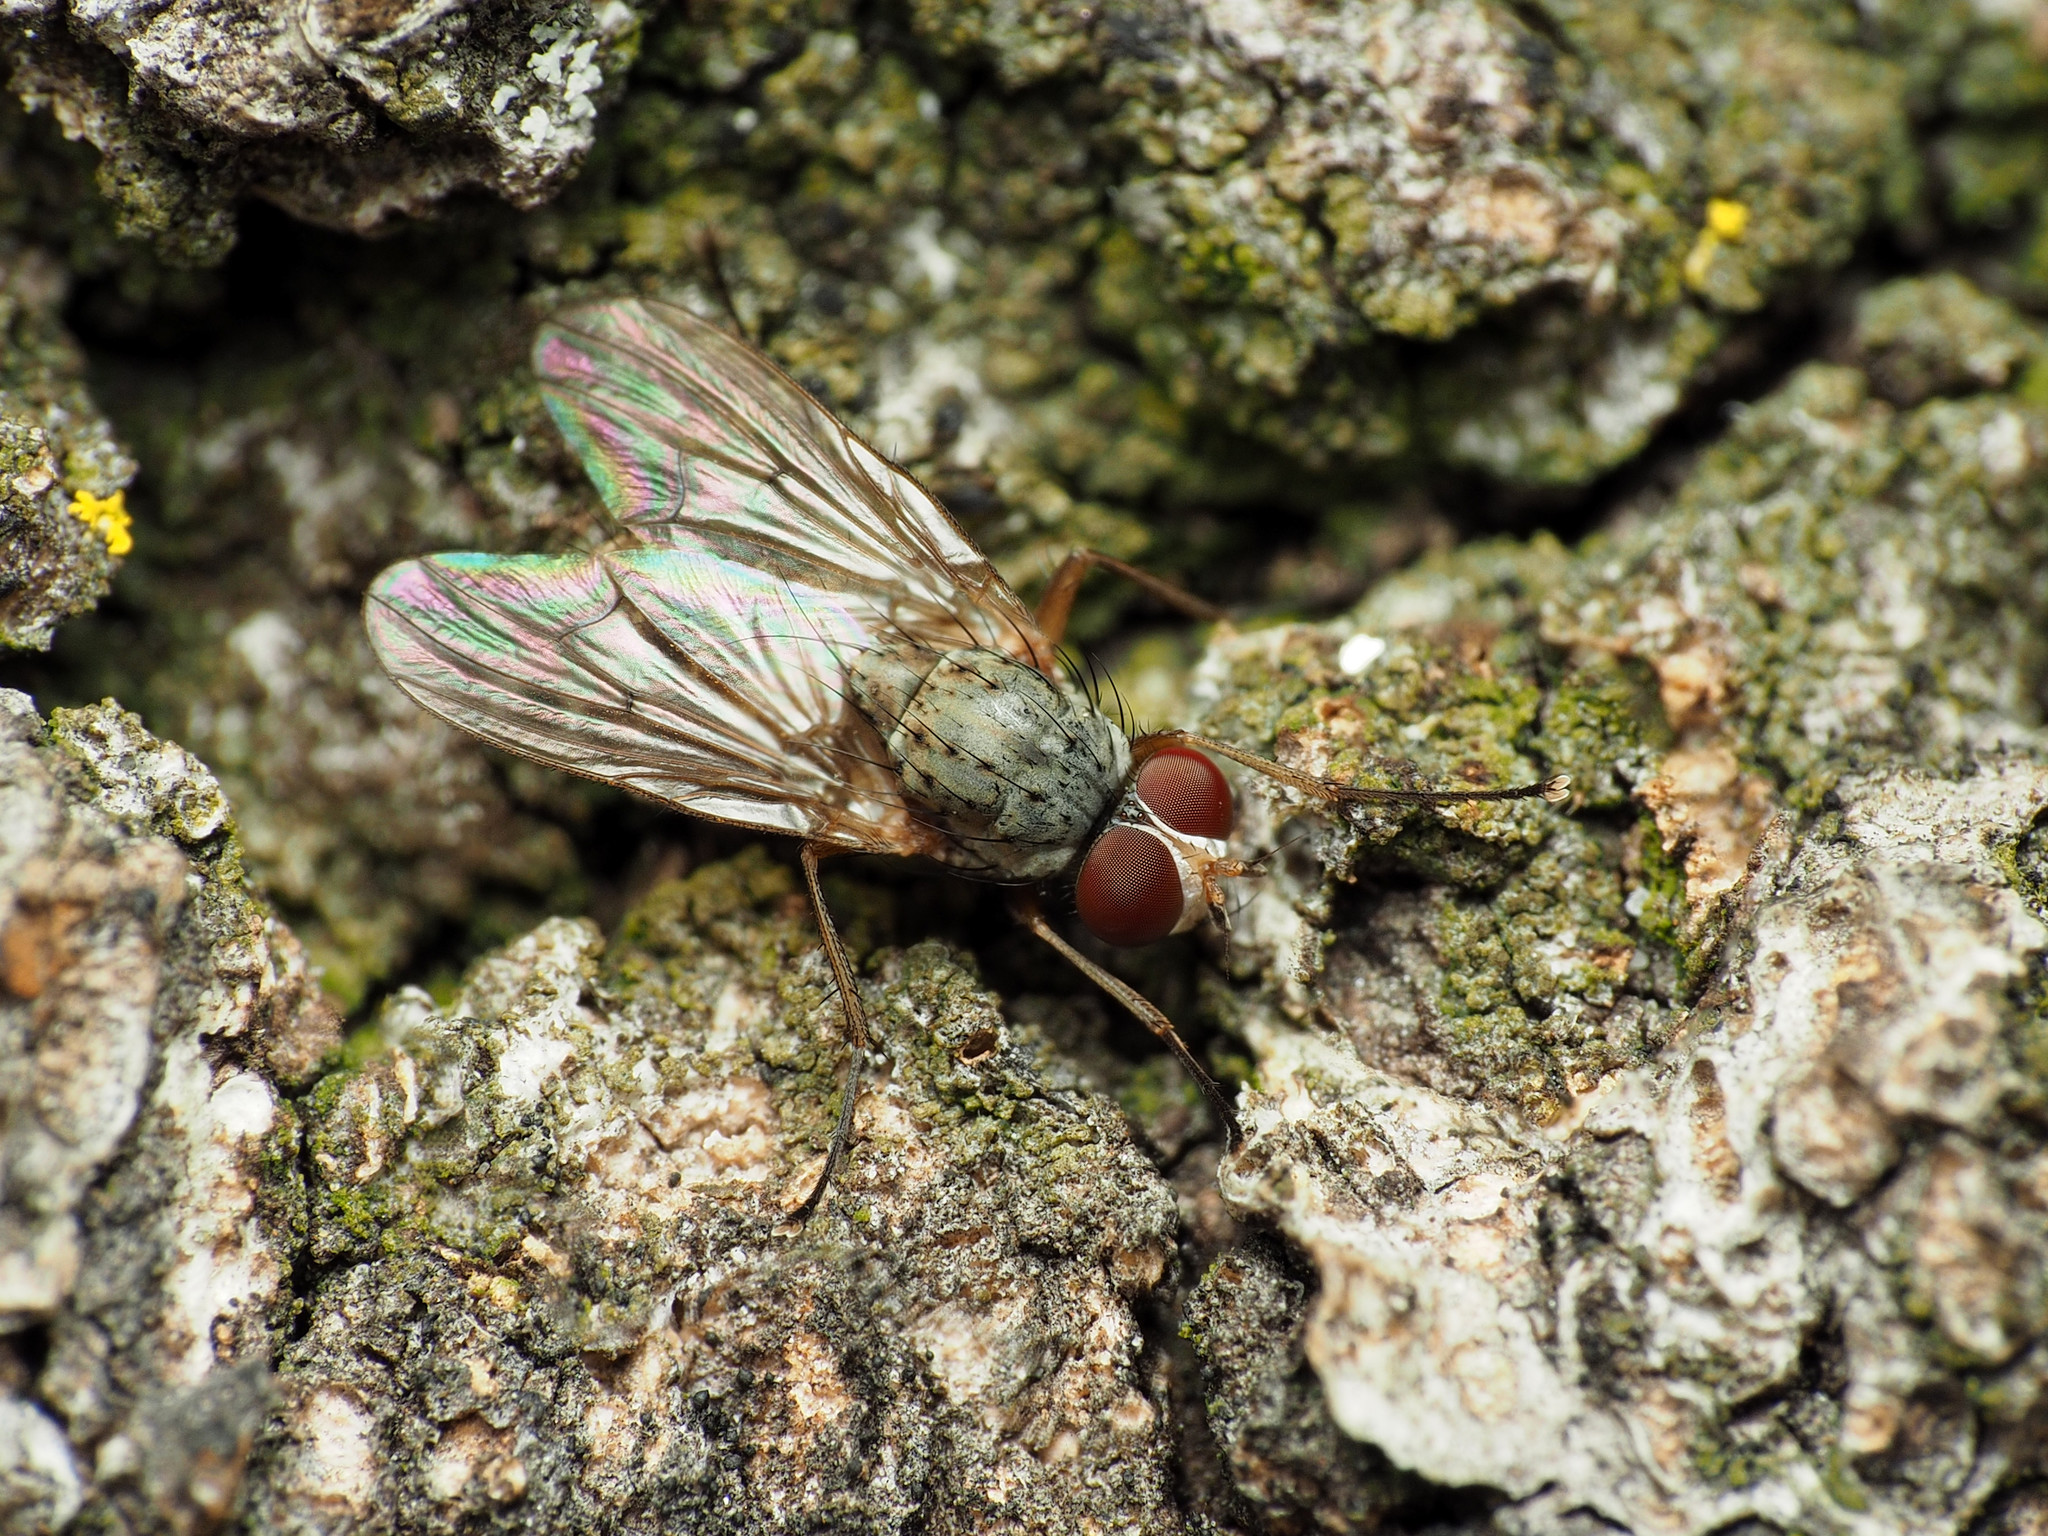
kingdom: Animalia
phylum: Arthropoda
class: Insecta
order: Diptera
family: Anthomyiidae
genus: Eutrichota
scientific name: Eutrichota affinis
